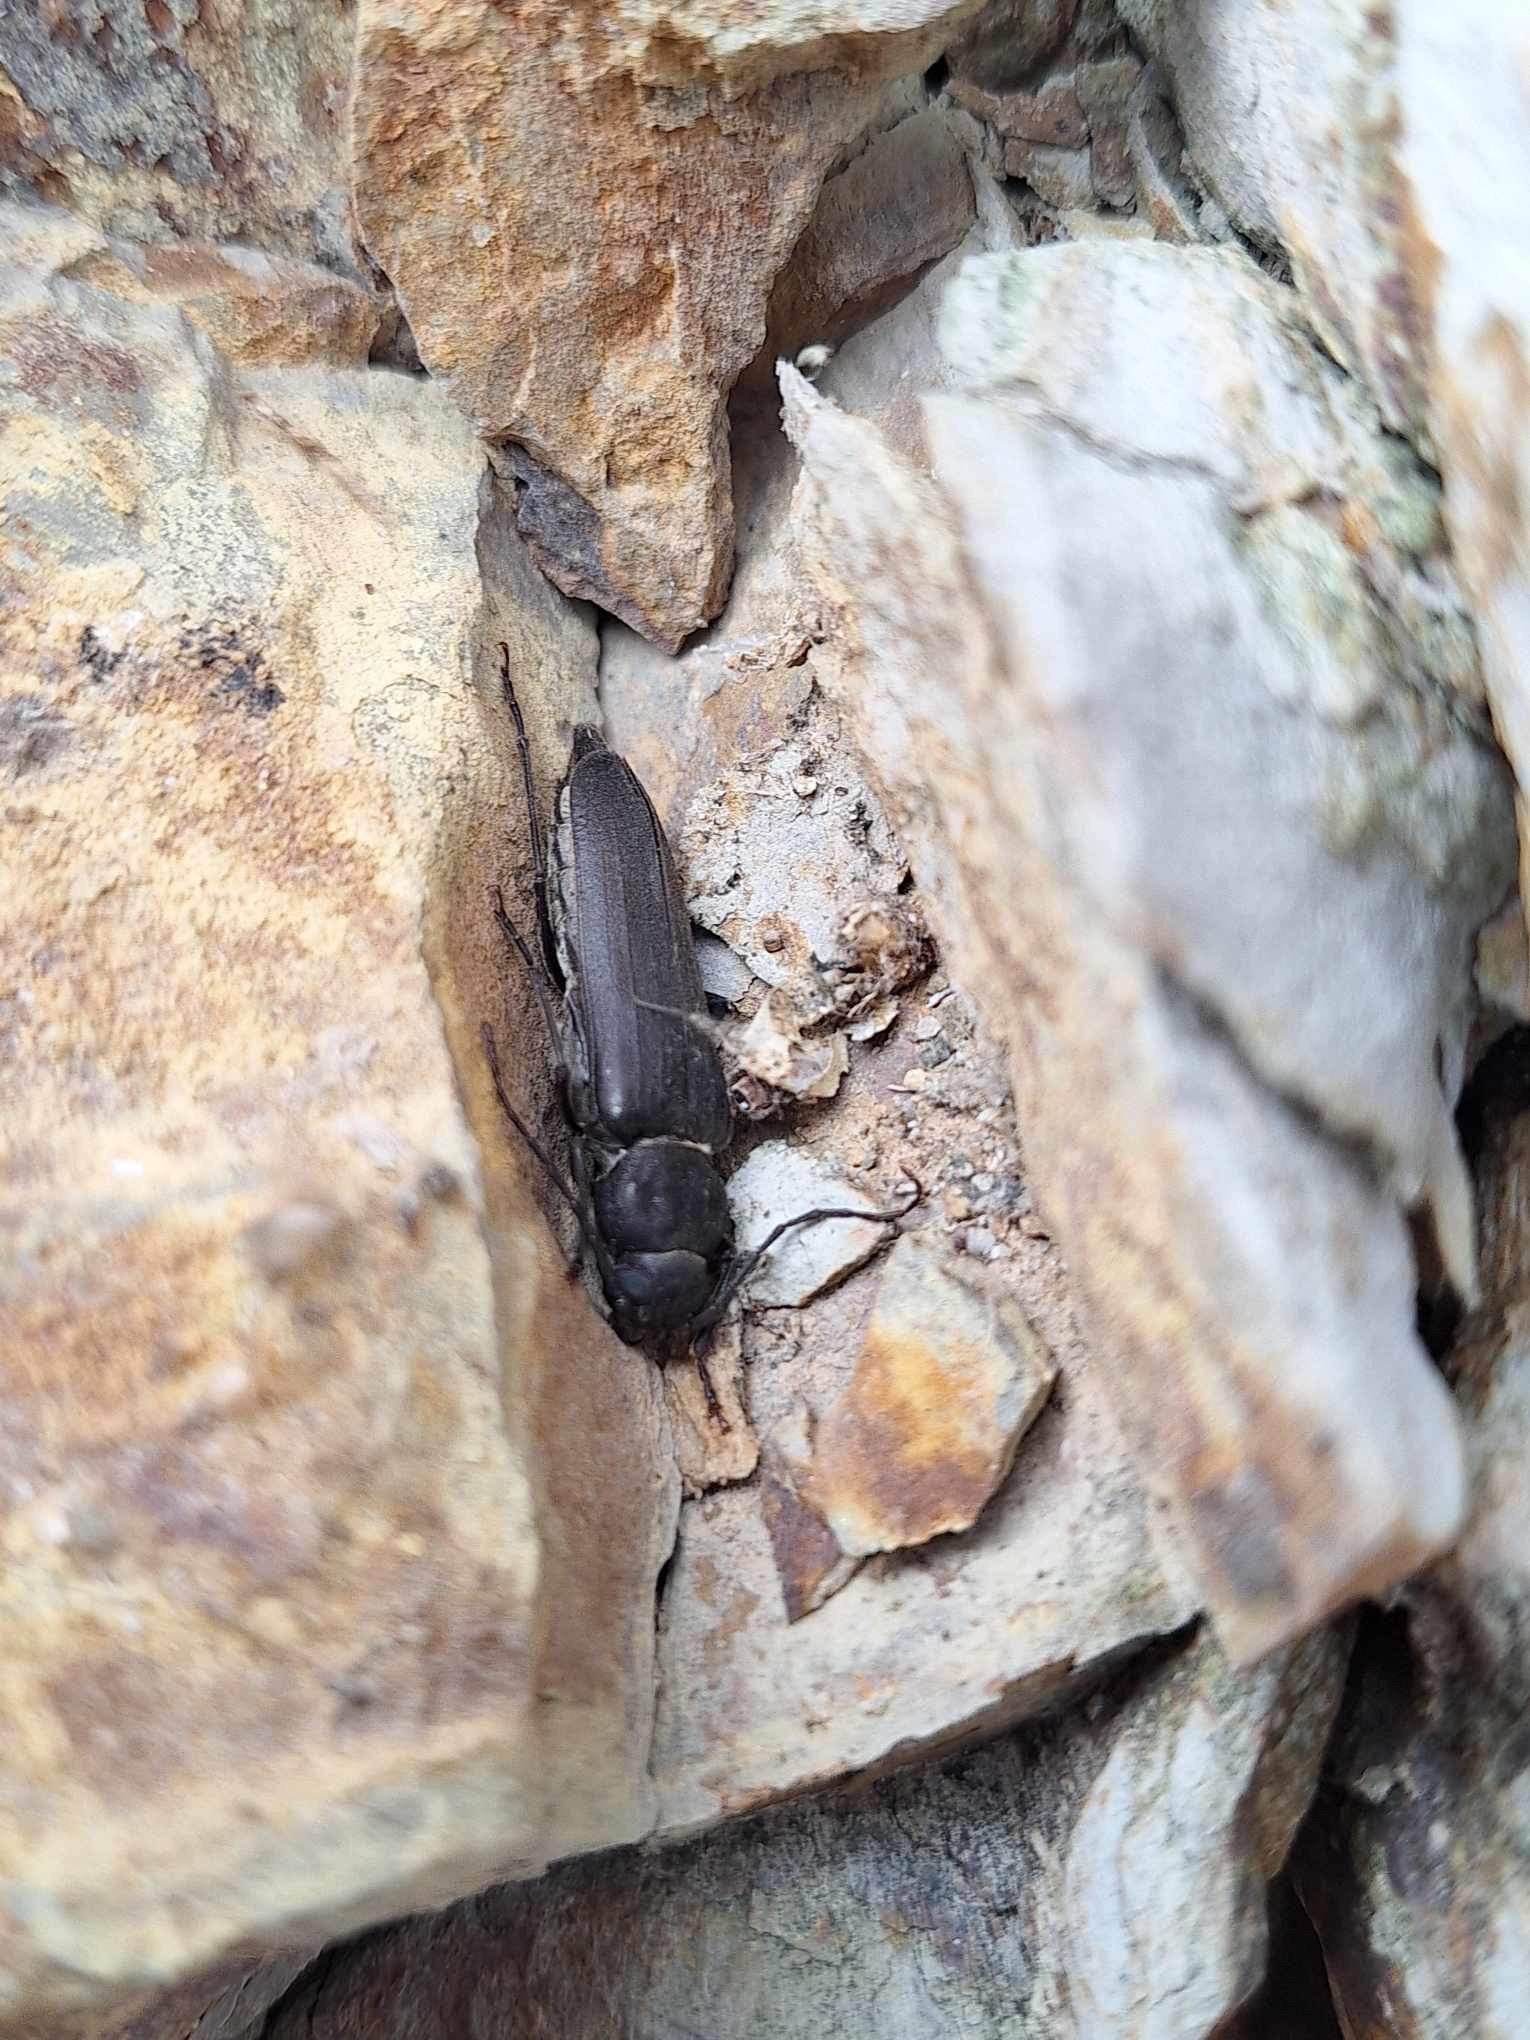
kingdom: Animalia
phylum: Arthropoda
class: Insecta
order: Coleoptera
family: Cerambycidae
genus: Arhopalus
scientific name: Arhopalus ferus
